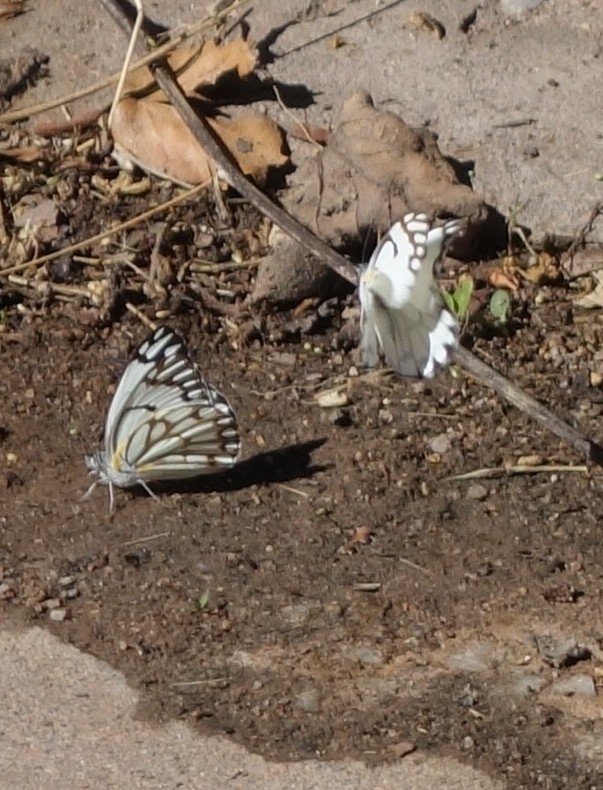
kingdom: Animalia
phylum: Arthropoda
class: Insecta
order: Lepidoptera
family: Pieridae
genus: Belenois
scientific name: Belenois aurota
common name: Brown-veined white
